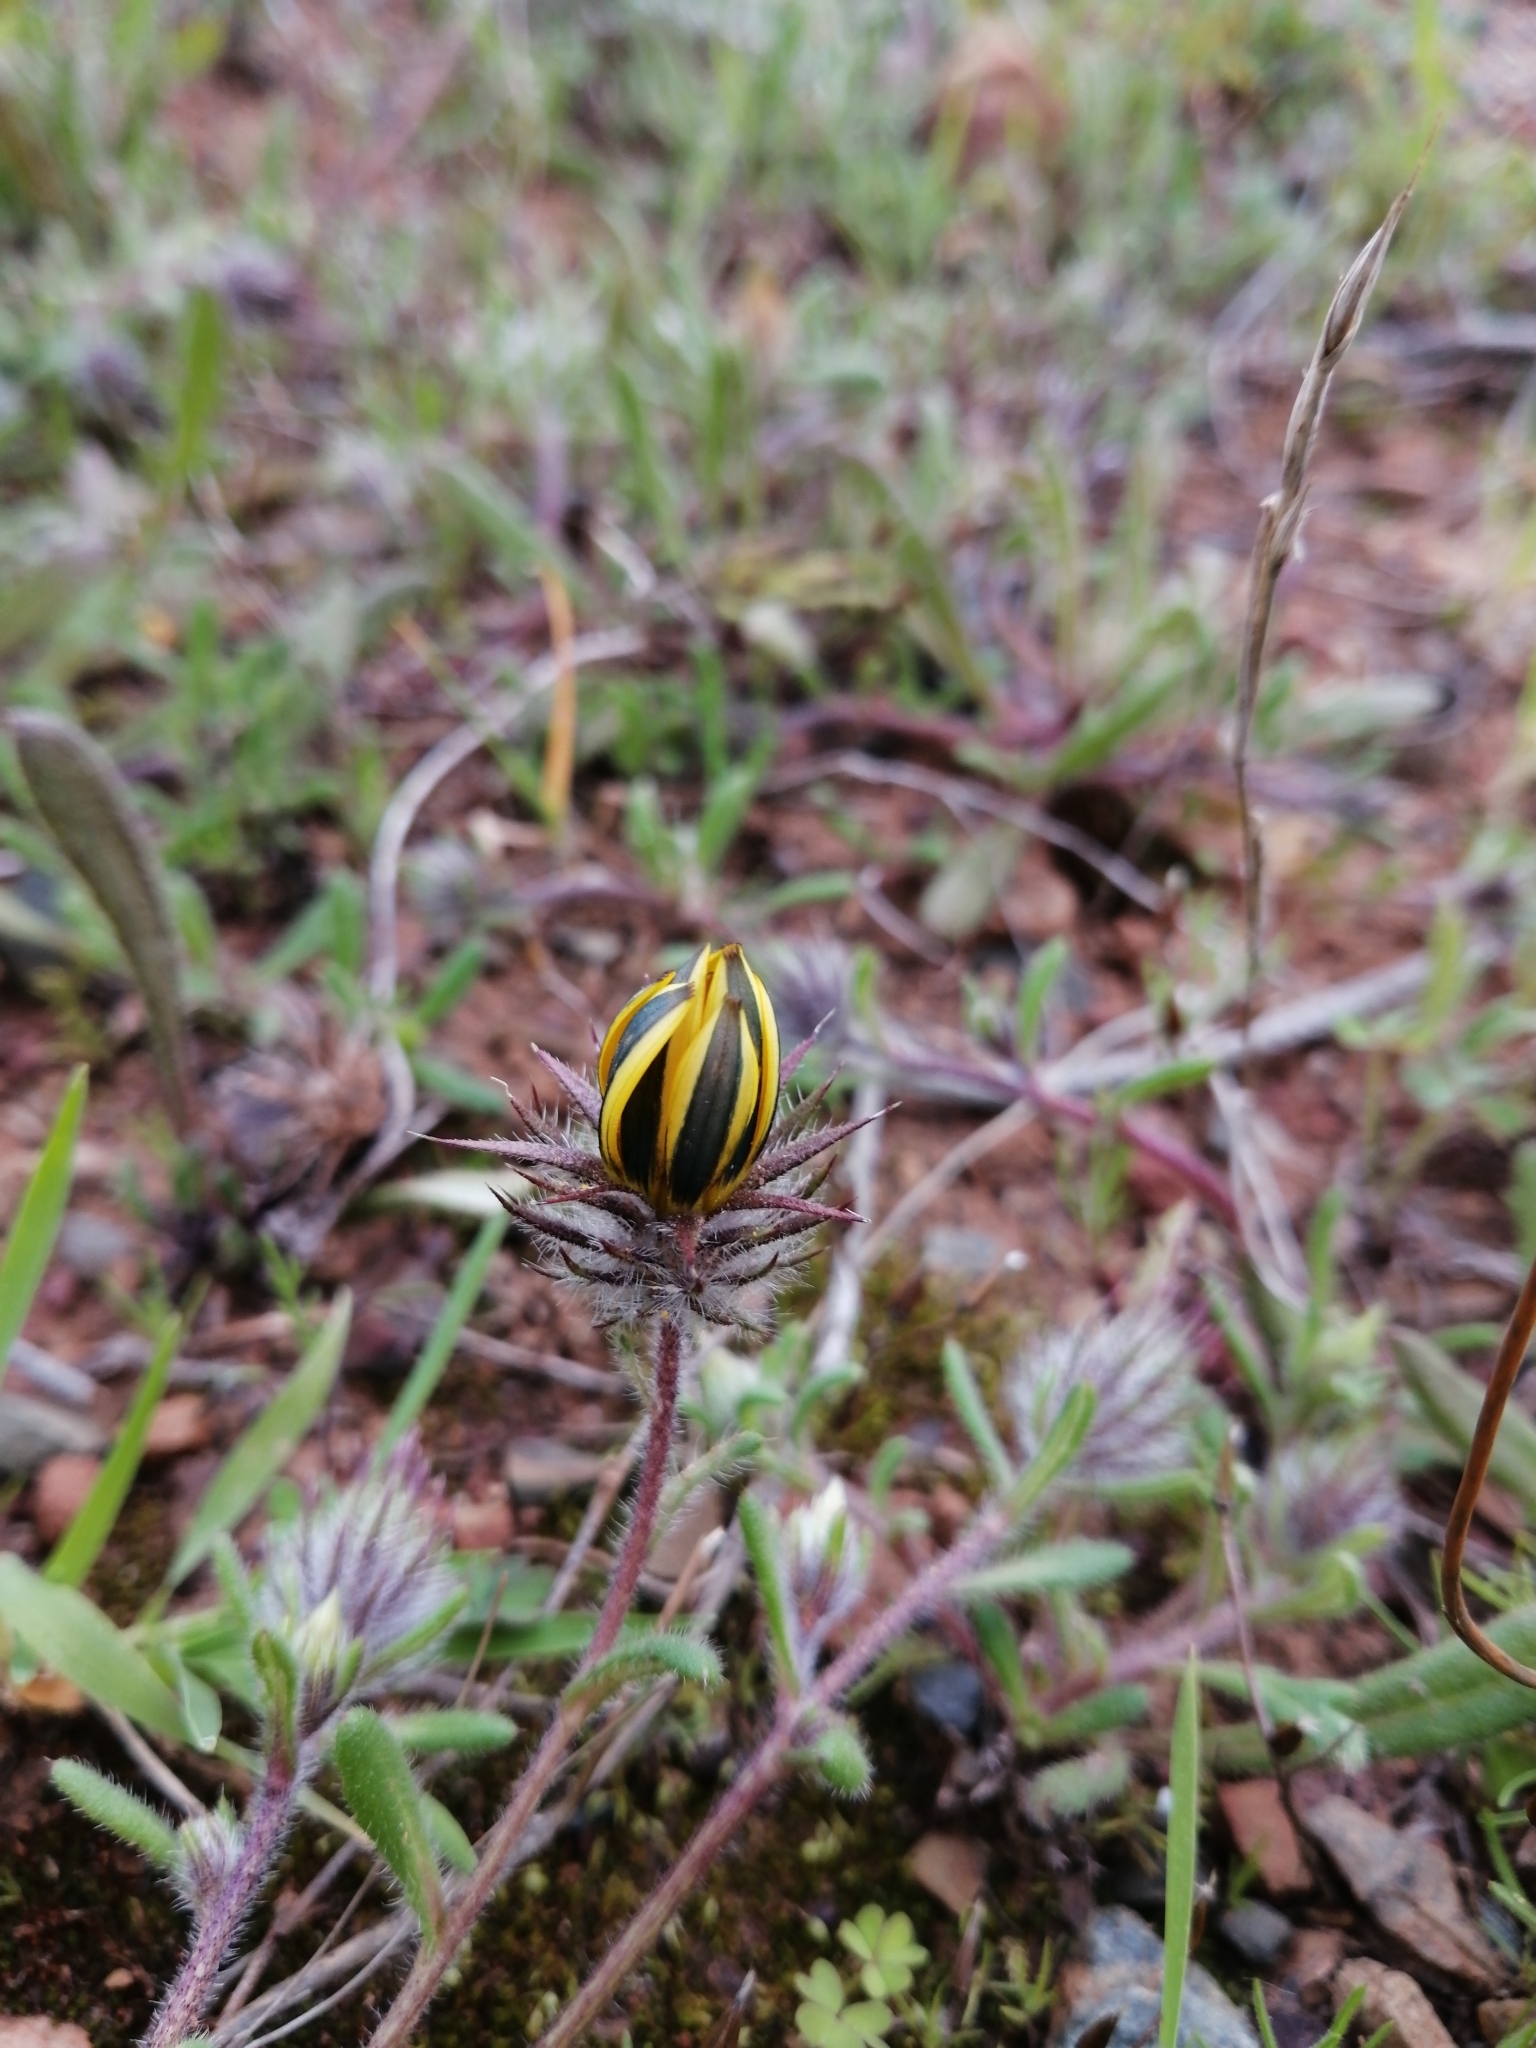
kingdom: Plantae
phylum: Tracheophyta
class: Magnoliopsida
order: Asterales
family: Asteraceae
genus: Gorteria
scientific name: Gorteria piloselloides
